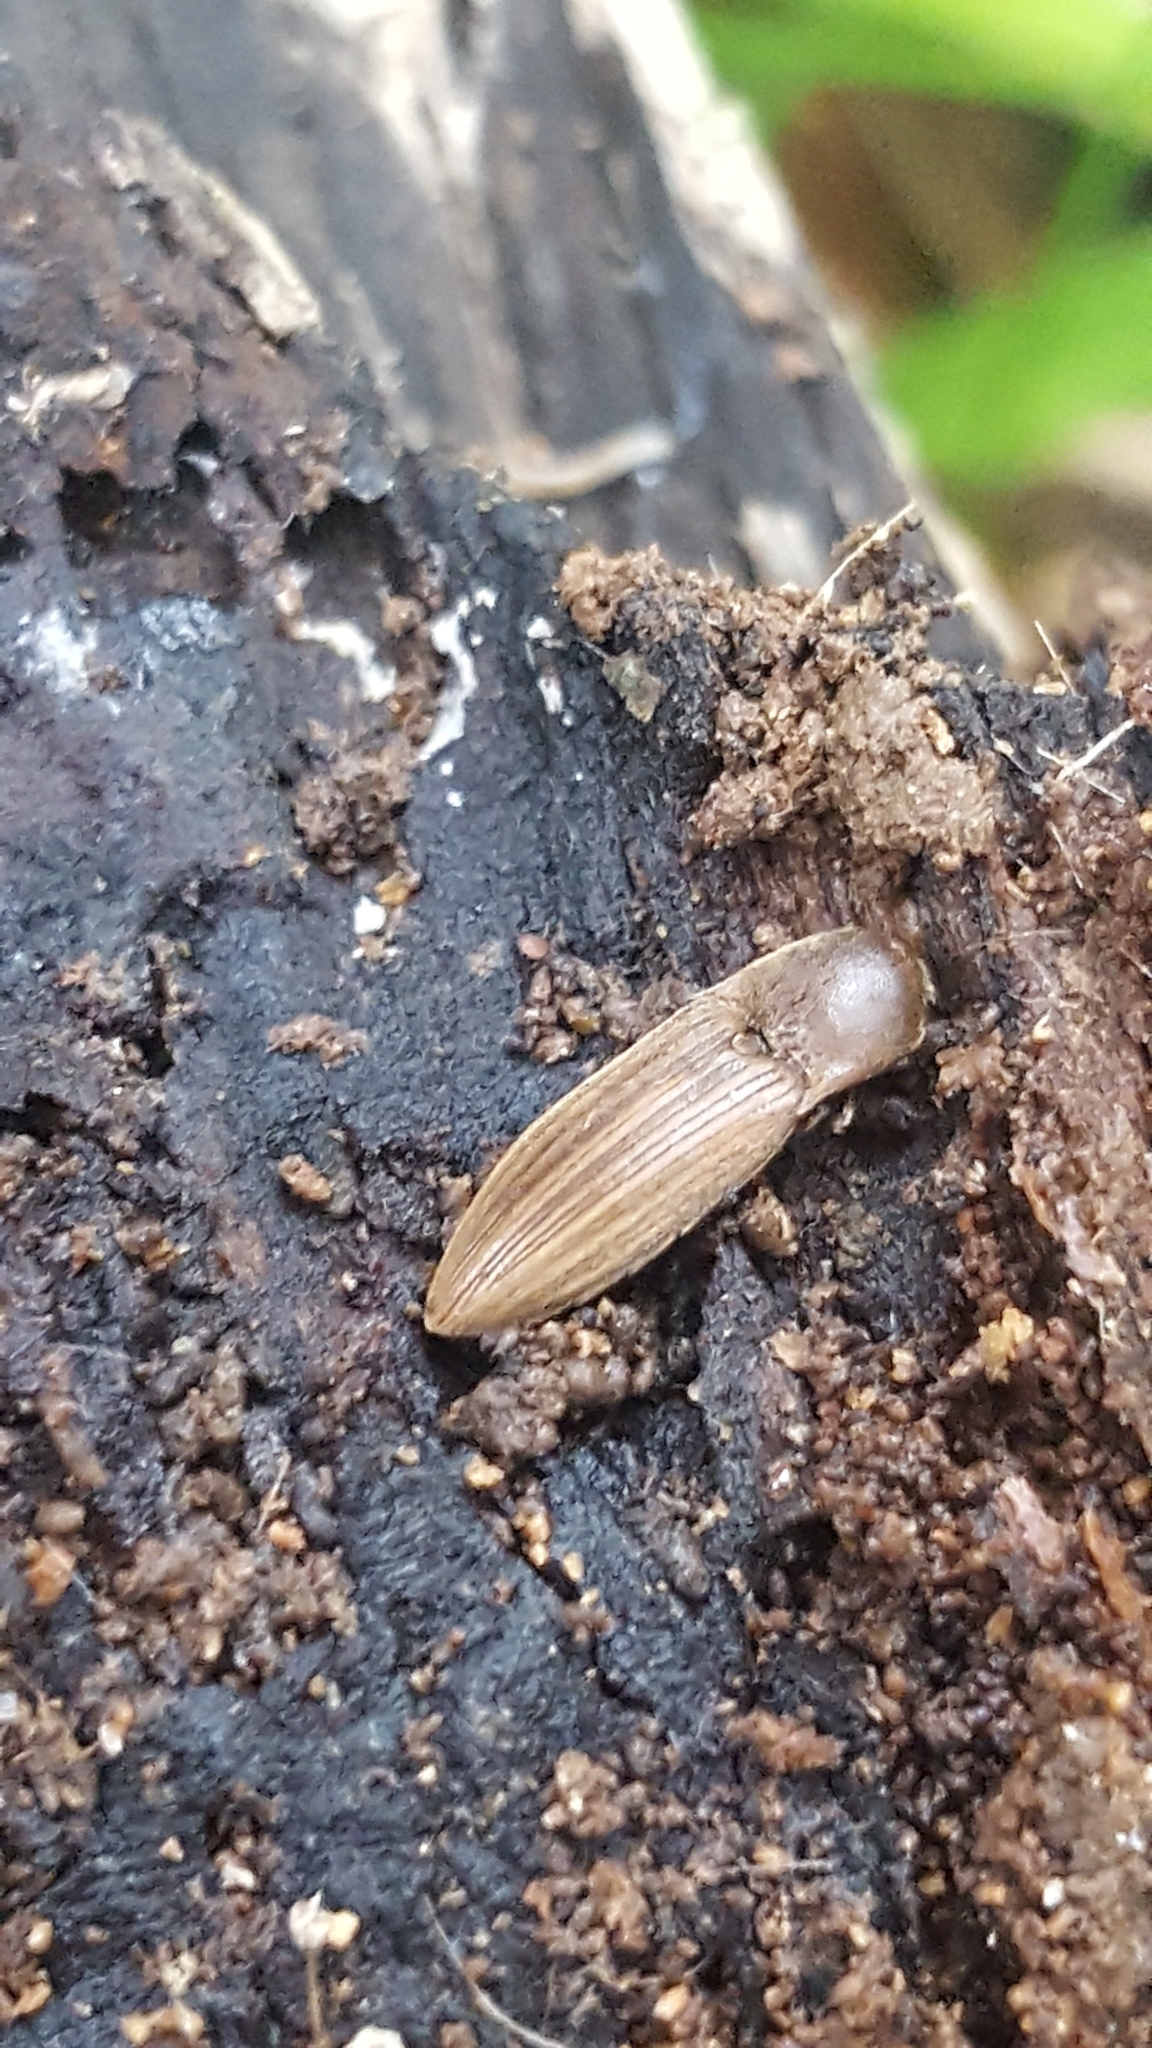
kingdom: Animalia
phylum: Arthropoda
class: Insecta
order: Coleoptera
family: Elateridae
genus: Agriotes
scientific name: Agriotes lineatus
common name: Lined click beetle
